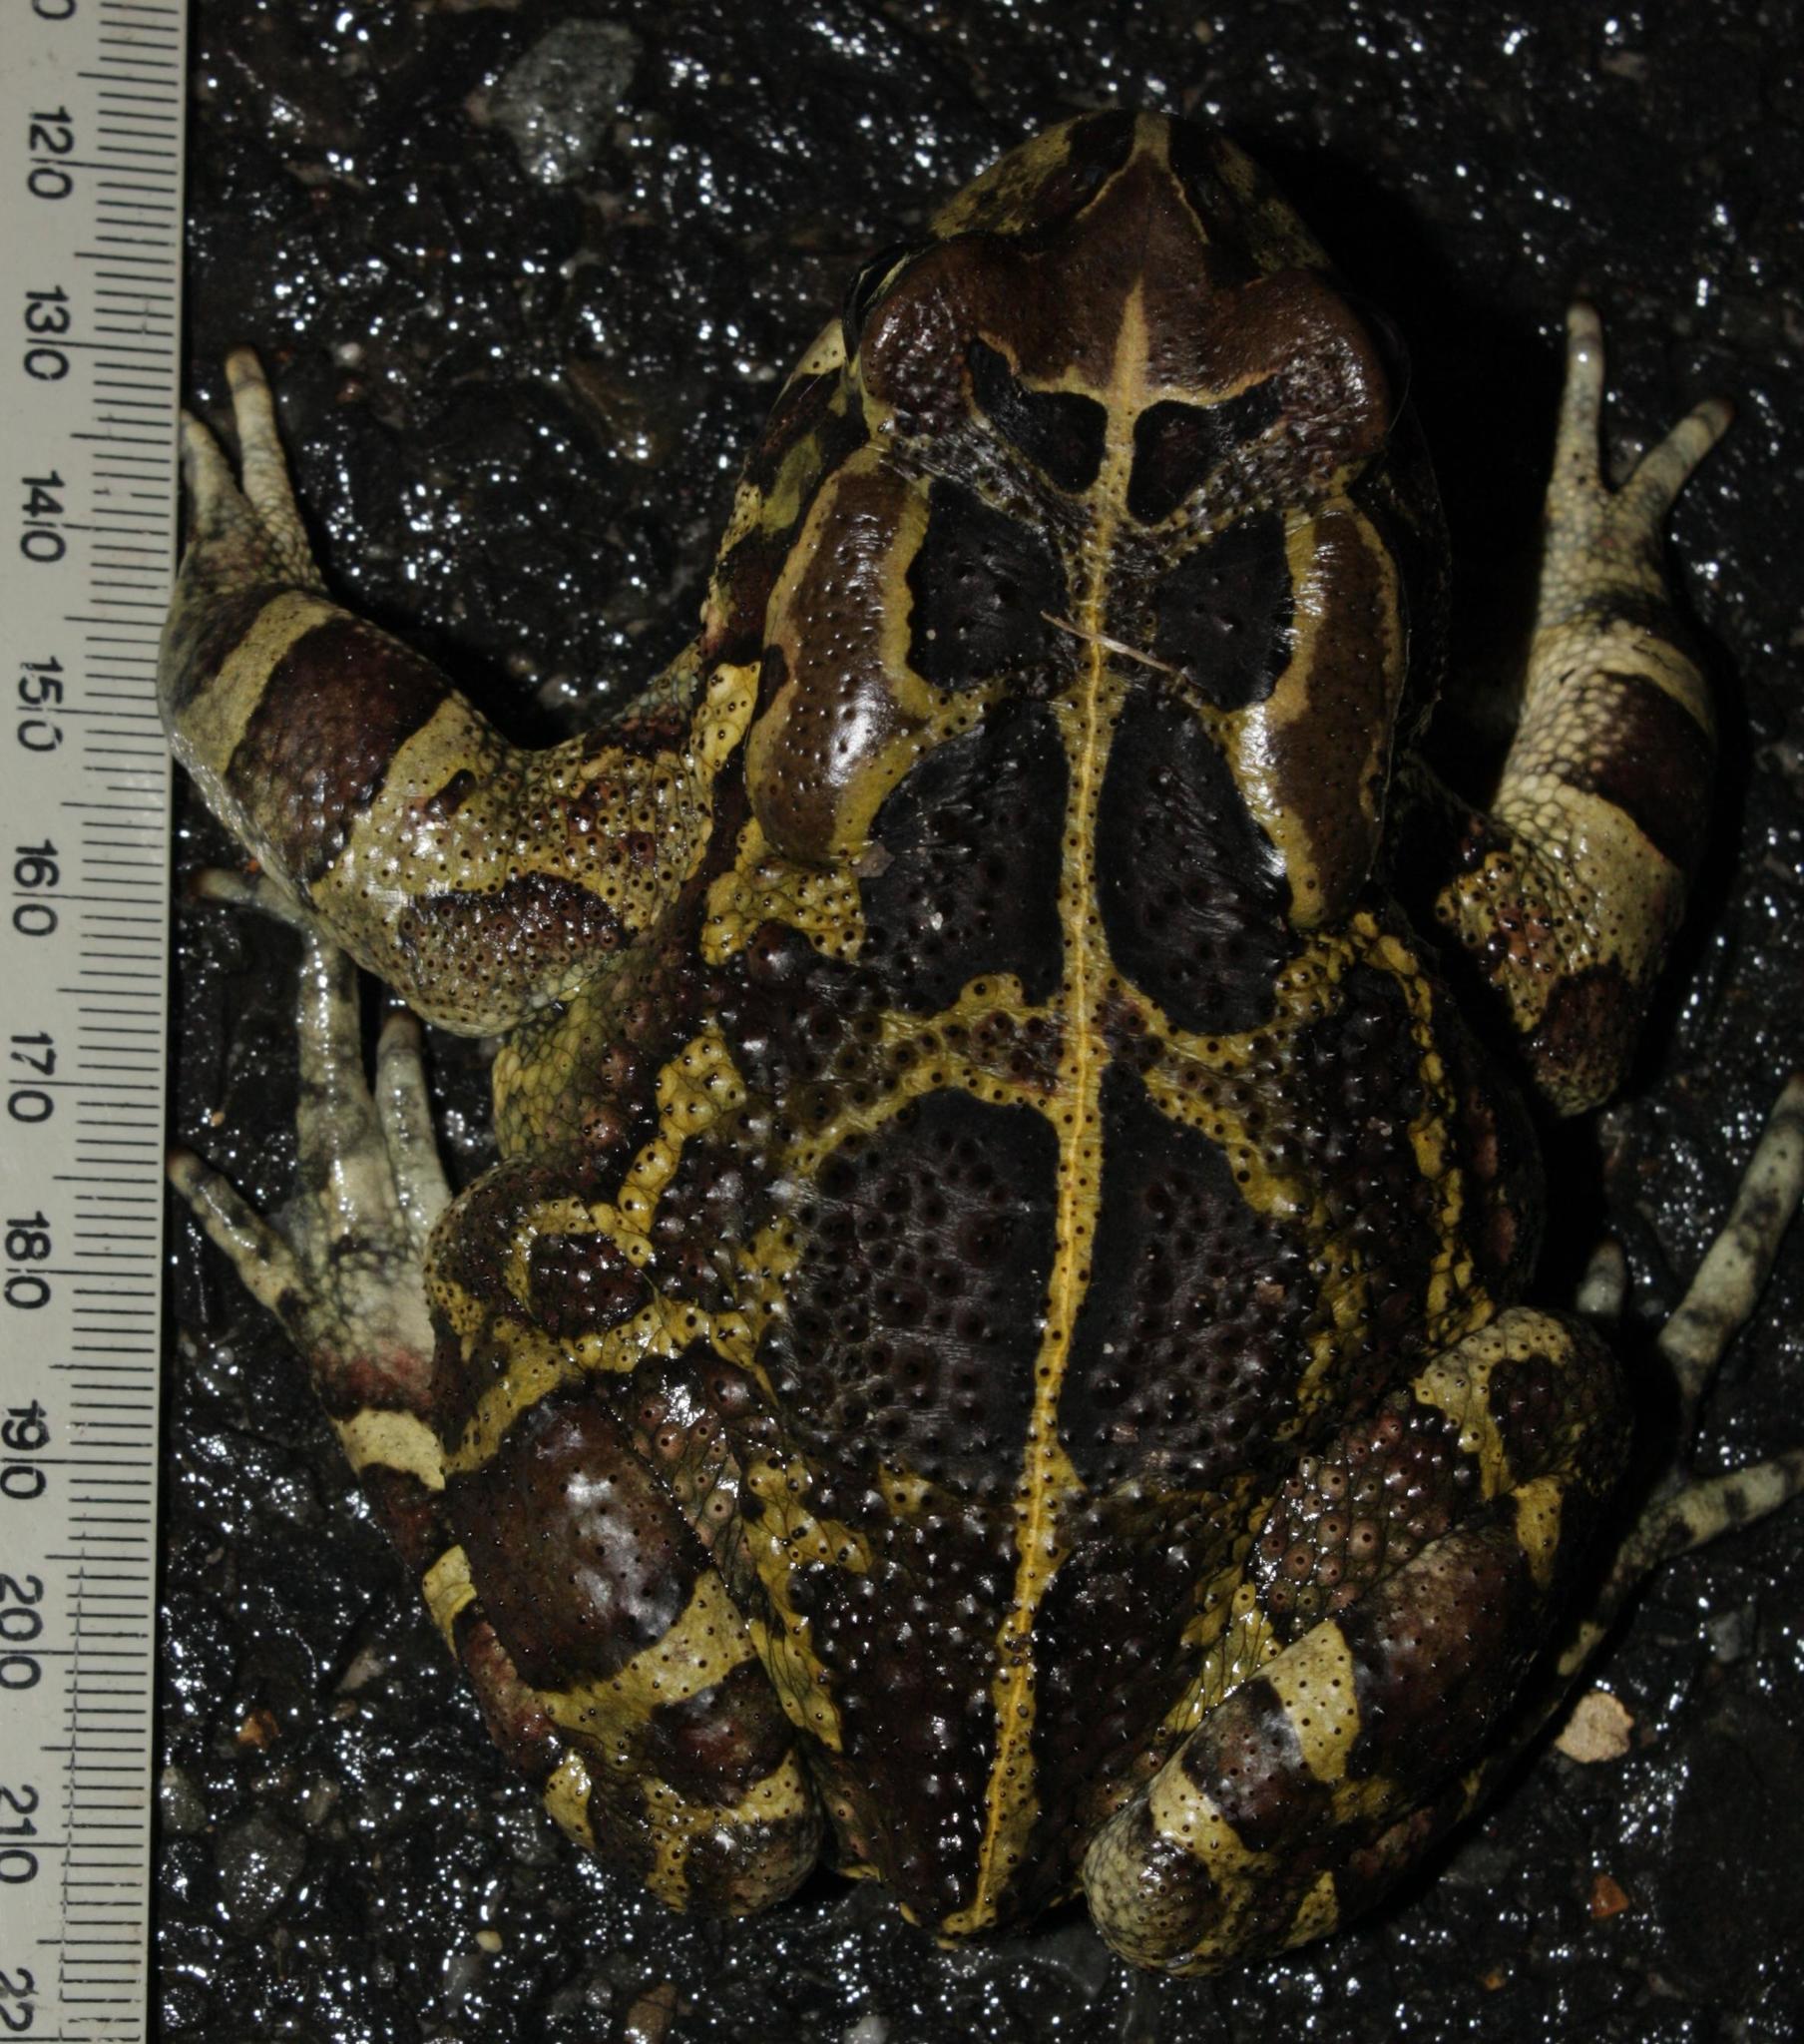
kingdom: Animalia
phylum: Chordata
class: Amphibia
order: Anura
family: Bufonidae
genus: Sclerophrys
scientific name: Sclerophrys pantherina
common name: Panther toad
